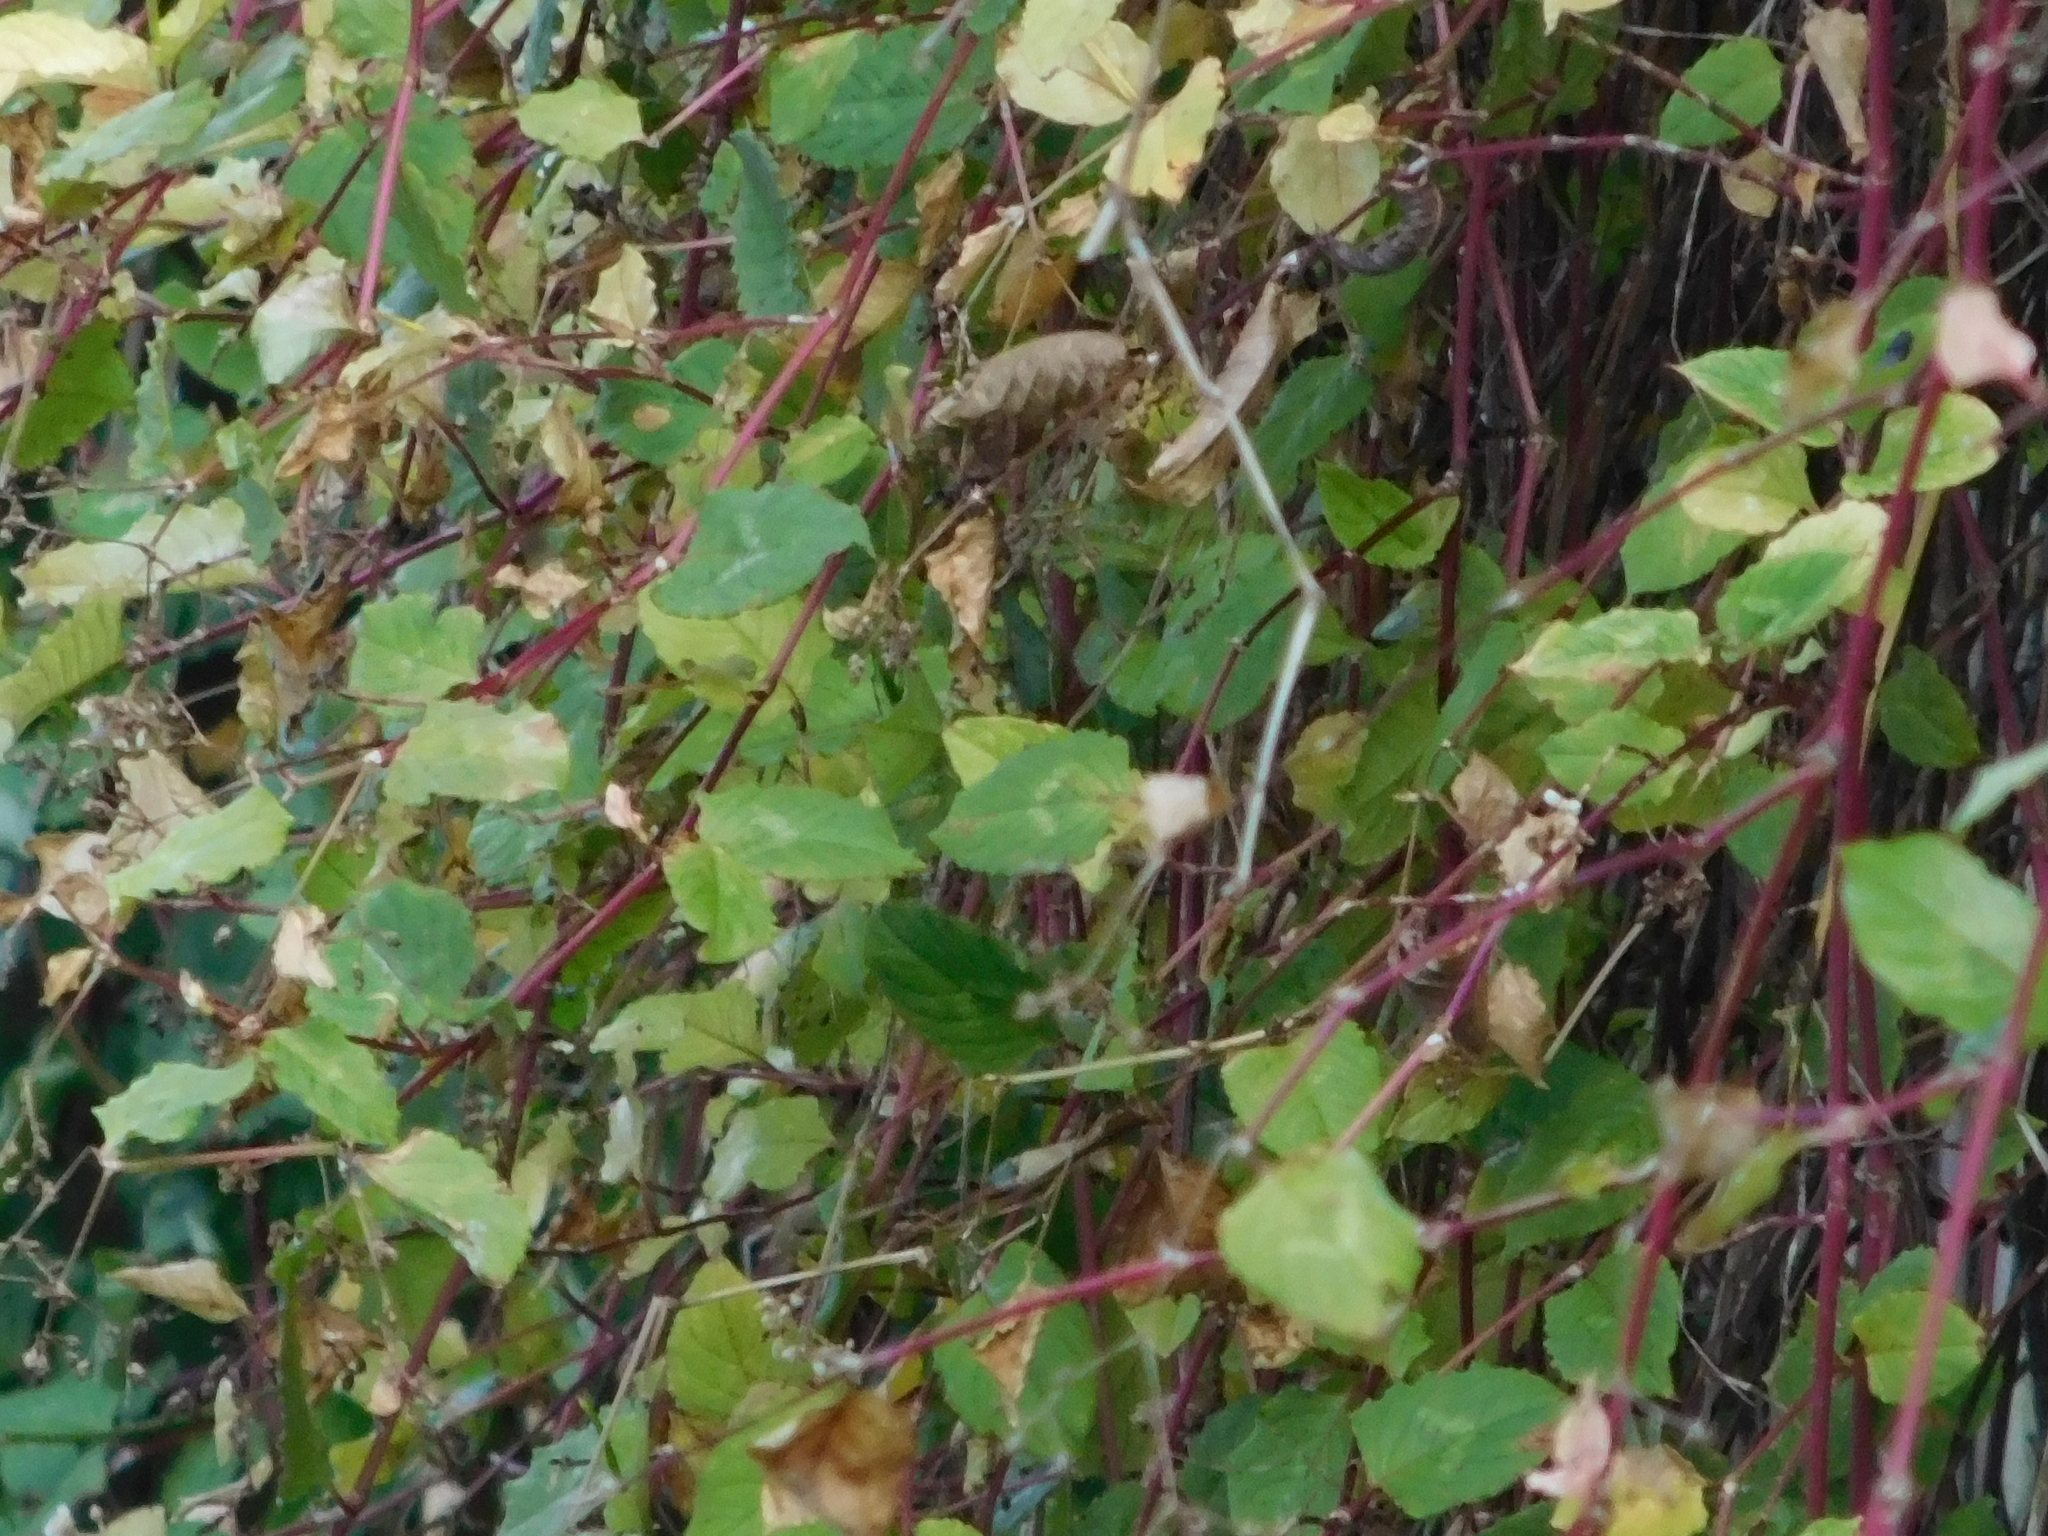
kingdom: Plantae
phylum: Tracheophyta
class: Magnoliopsida
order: Caryophyllales
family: Polygonaceae
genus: Persicaria
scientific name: Persicaria chinensis
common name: Chinese knotweed
